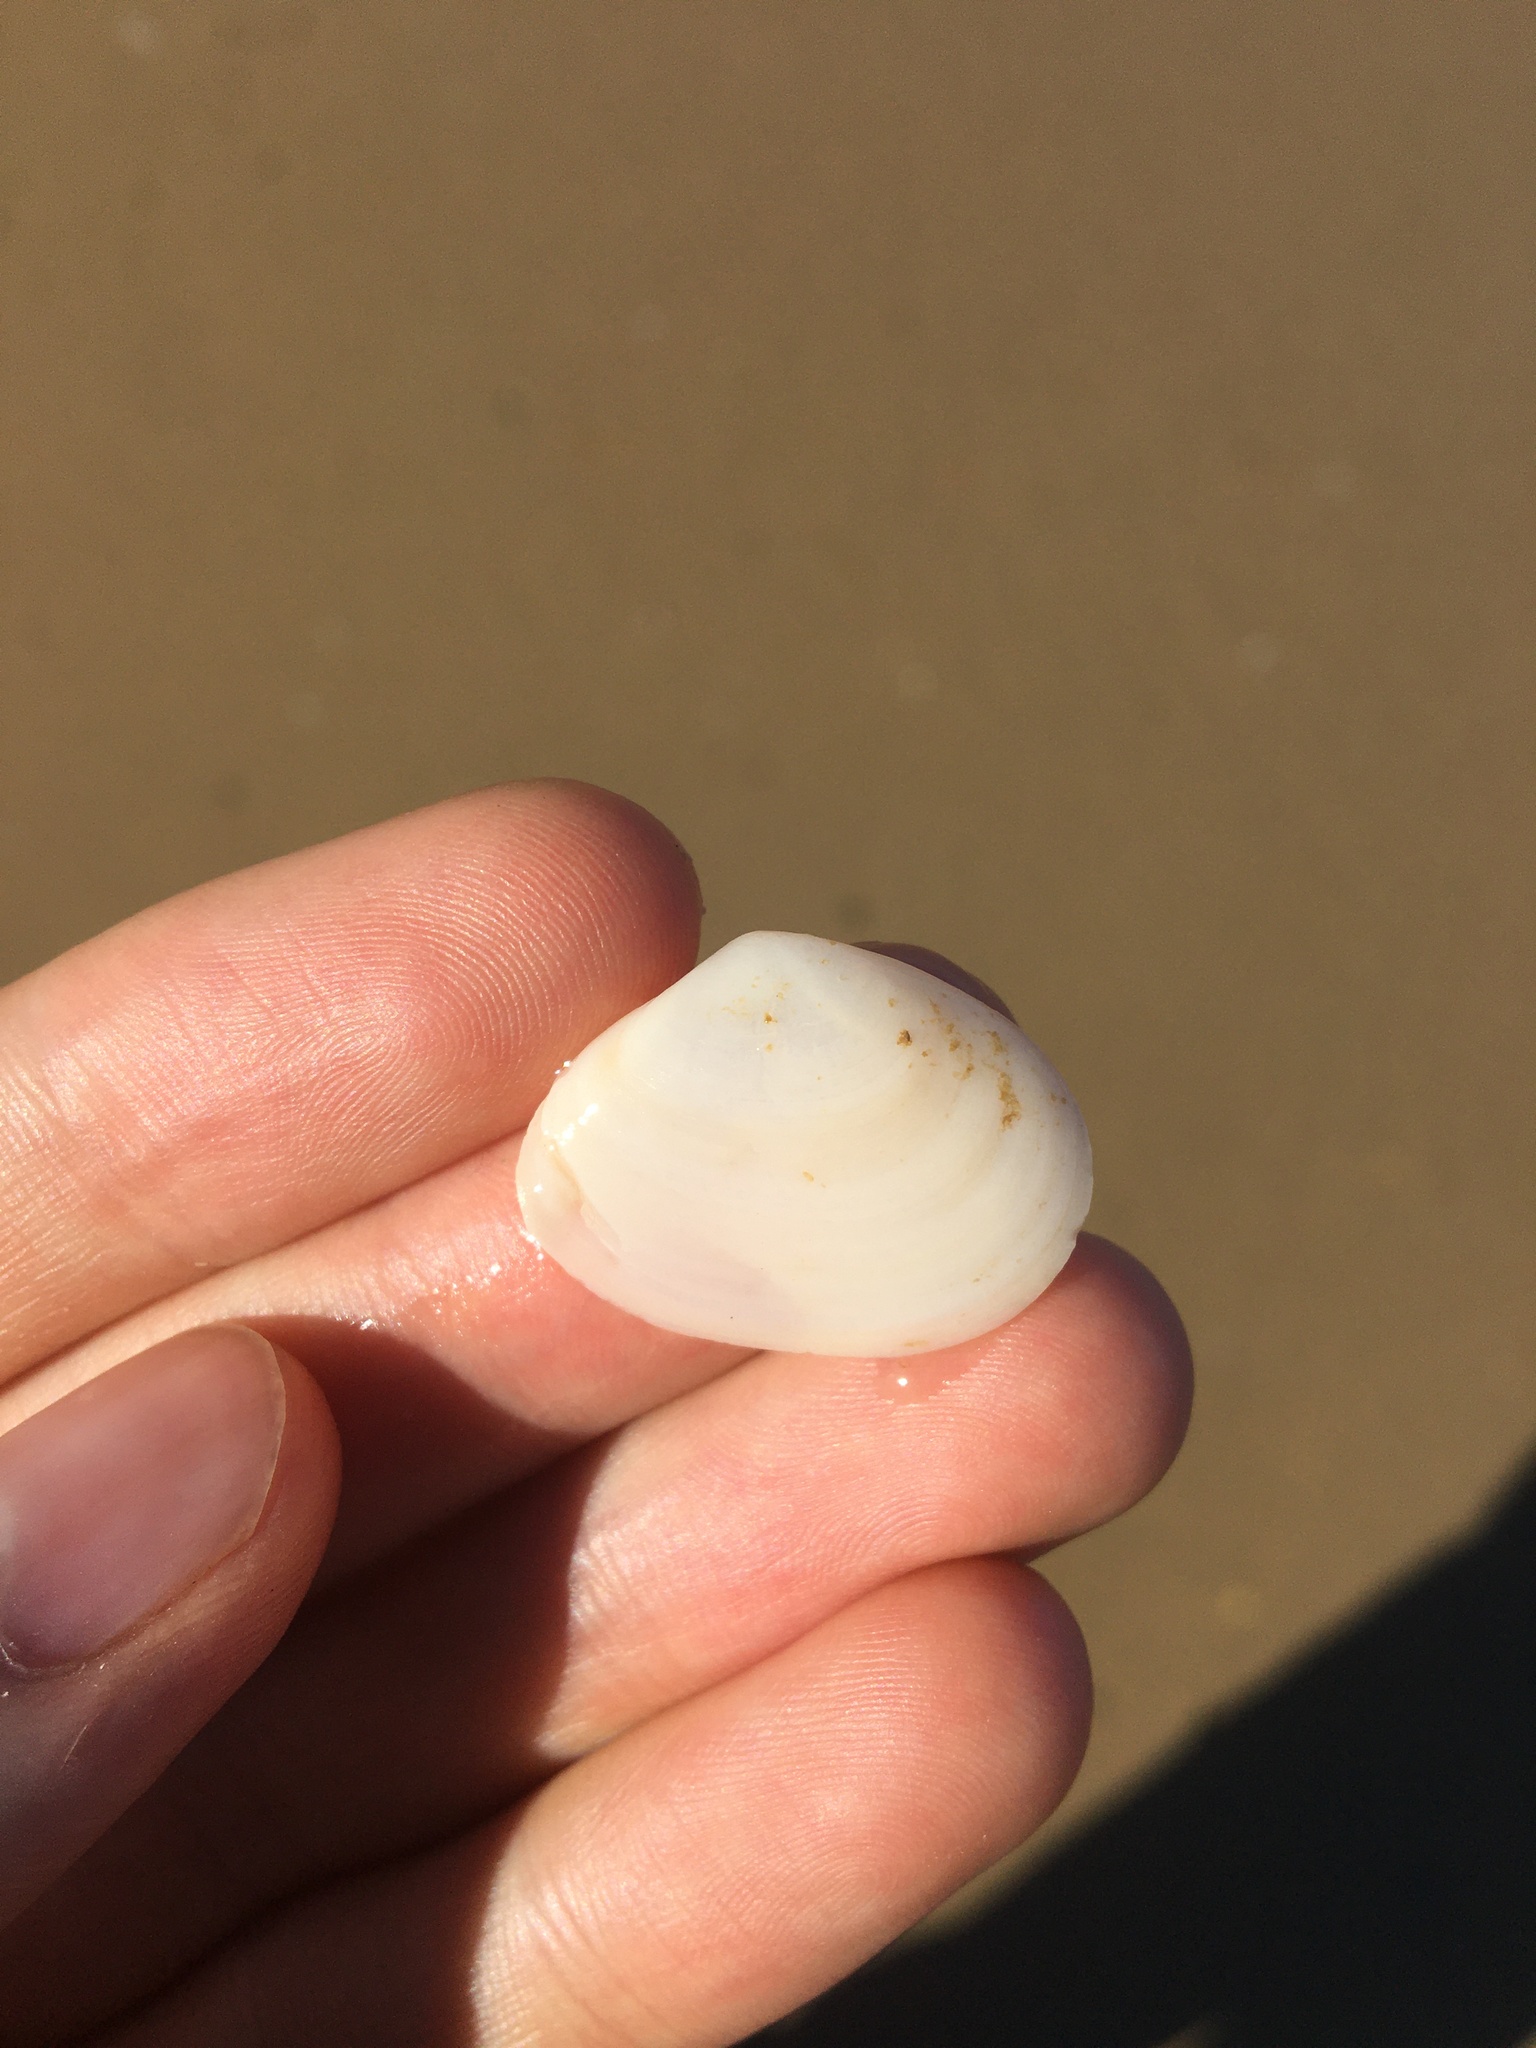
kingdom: Animalia
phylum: Mollusca
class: Bivalvia
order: Cardiida
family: Tellinidae
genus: Macomona
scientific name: Macomona deltoidalis
